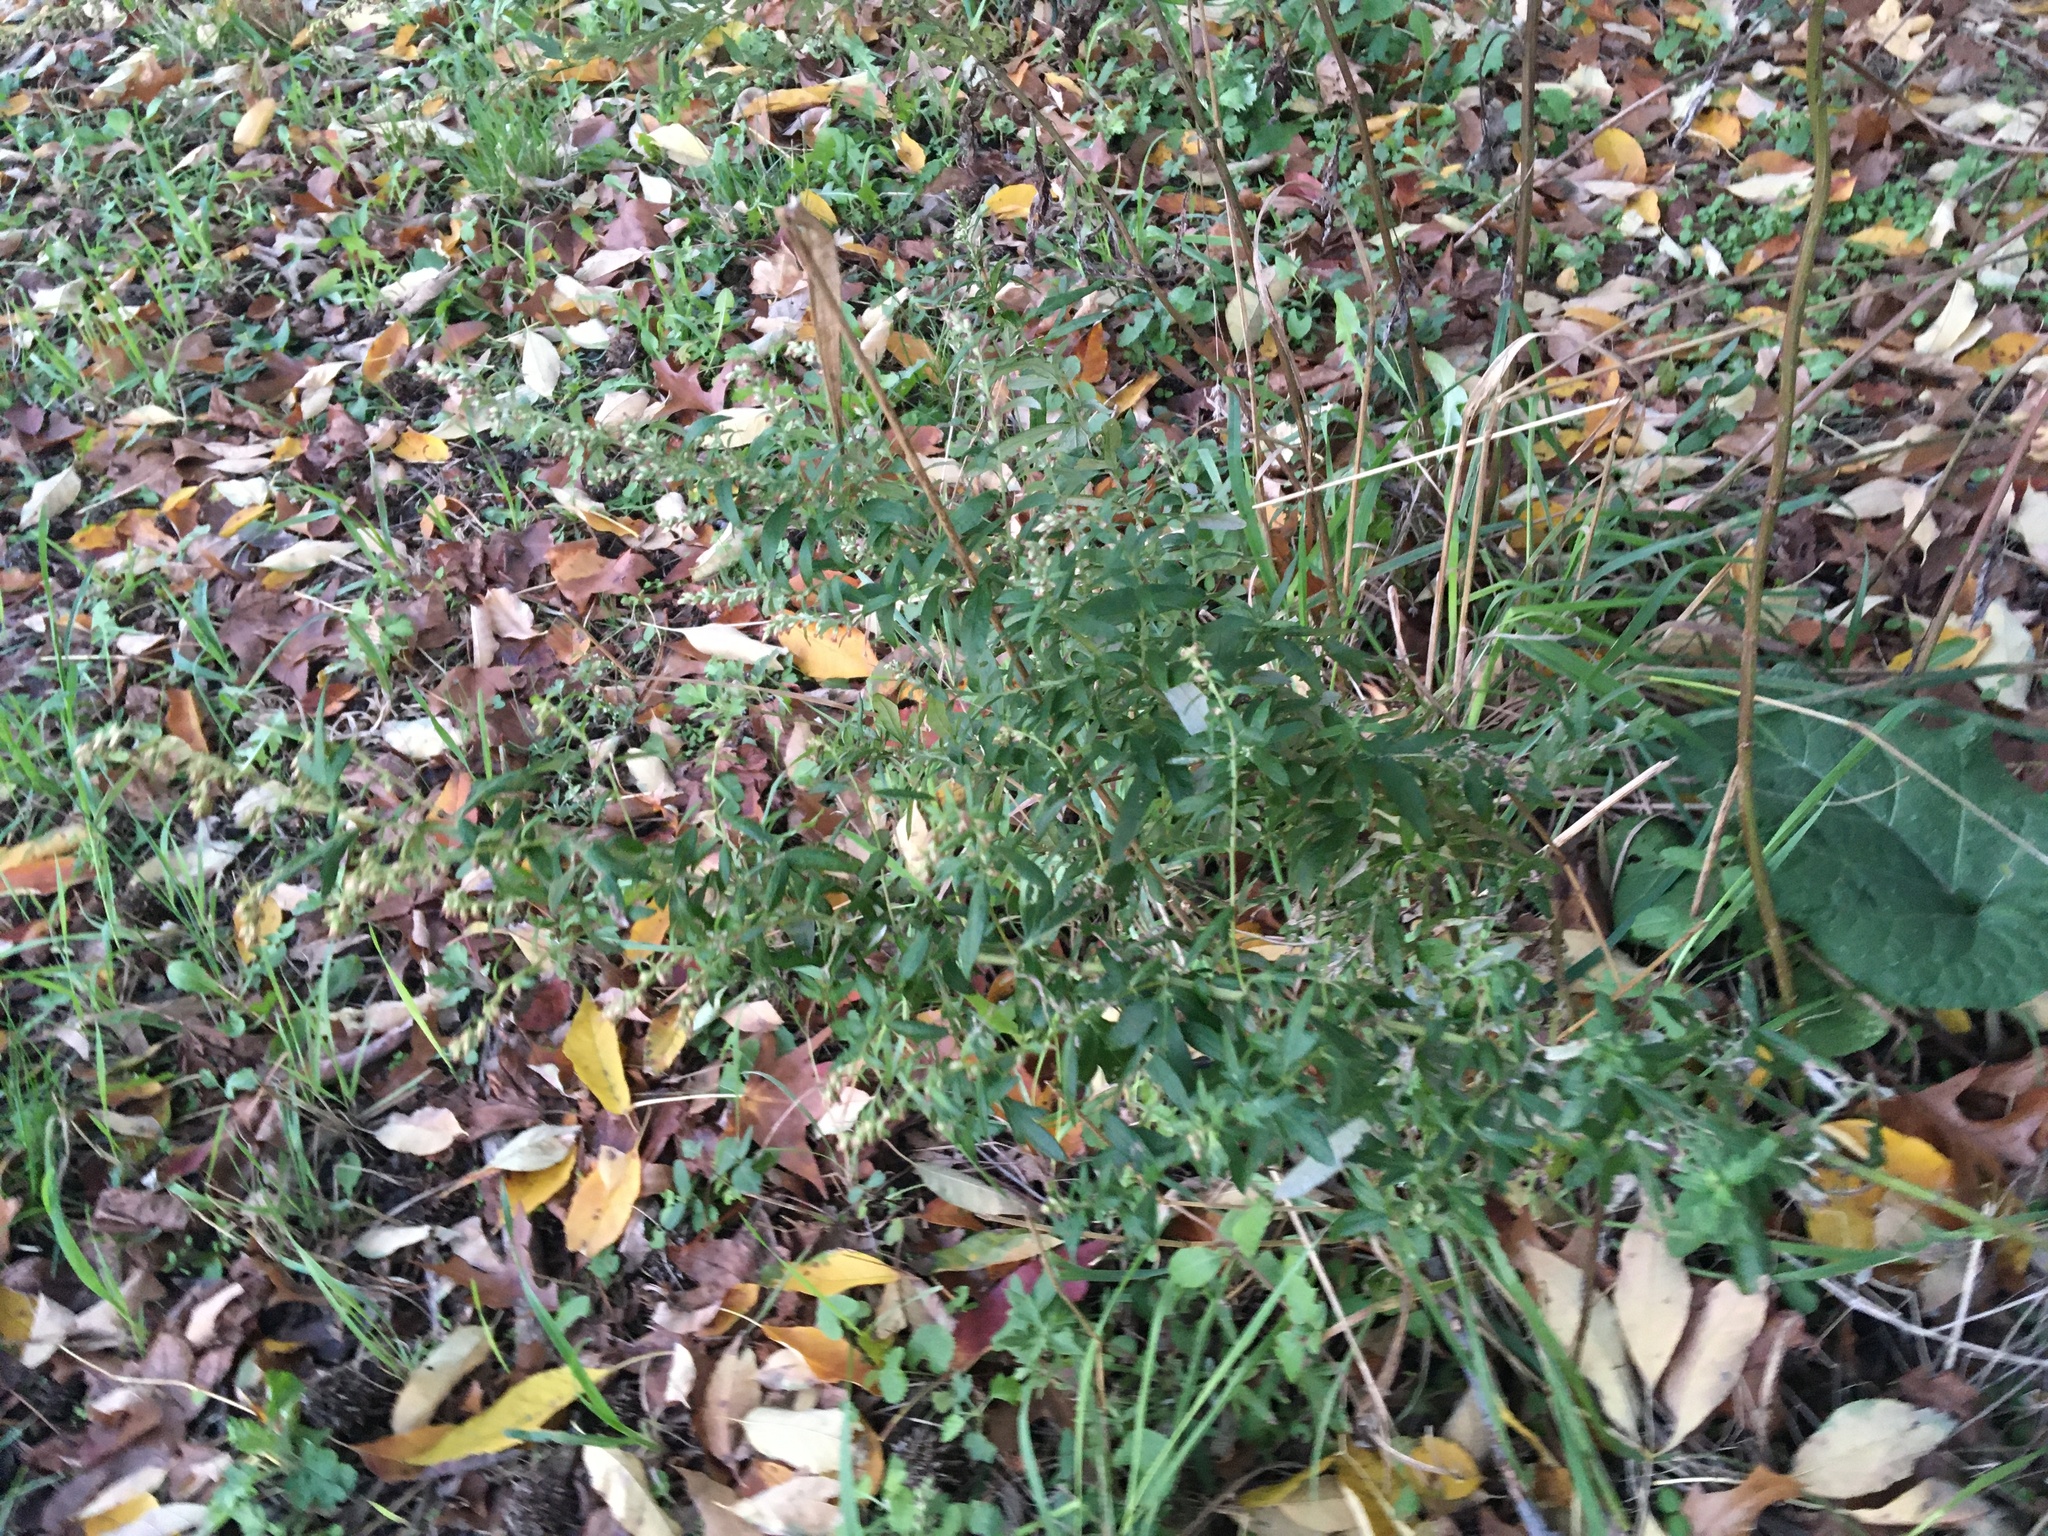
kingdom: Plantae
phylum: Tracheophyta
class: Magnoliopsida
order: Asterales
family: Asteraceae
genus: Artemisia
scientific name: Artemisia vulgaris
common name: Mugwort
